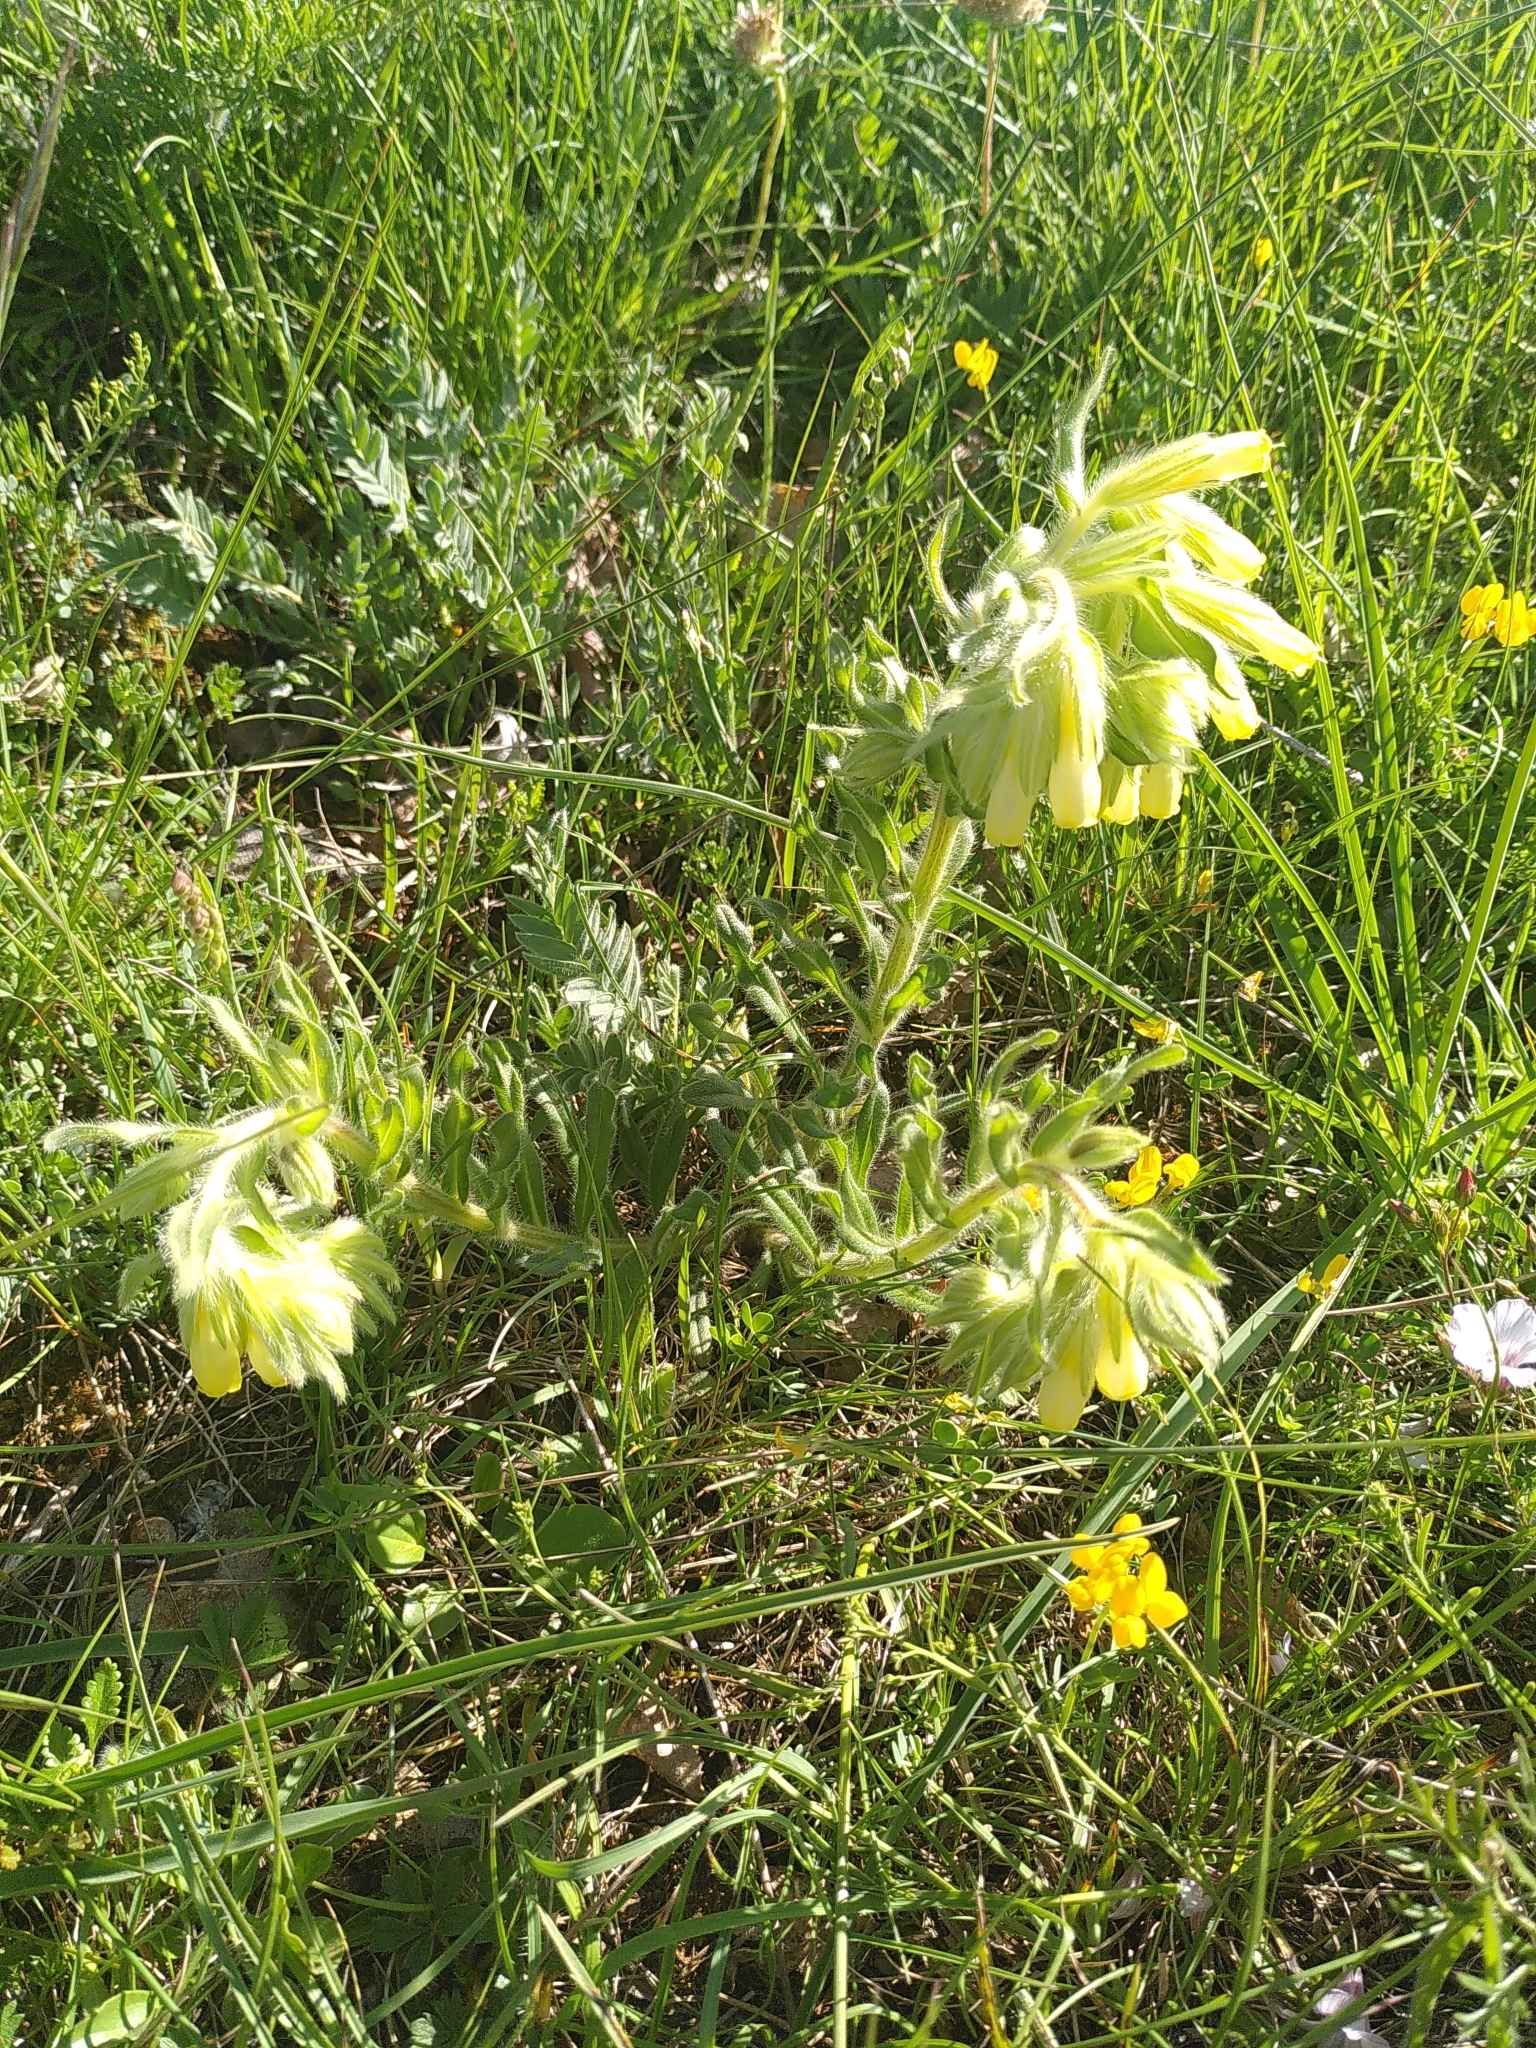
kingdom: Plantae
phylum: Tracheophyta
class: Magnoliopsida
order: Boraginales
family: Boraginaceae
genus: Onosma
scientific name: Onosma tricerosperma
